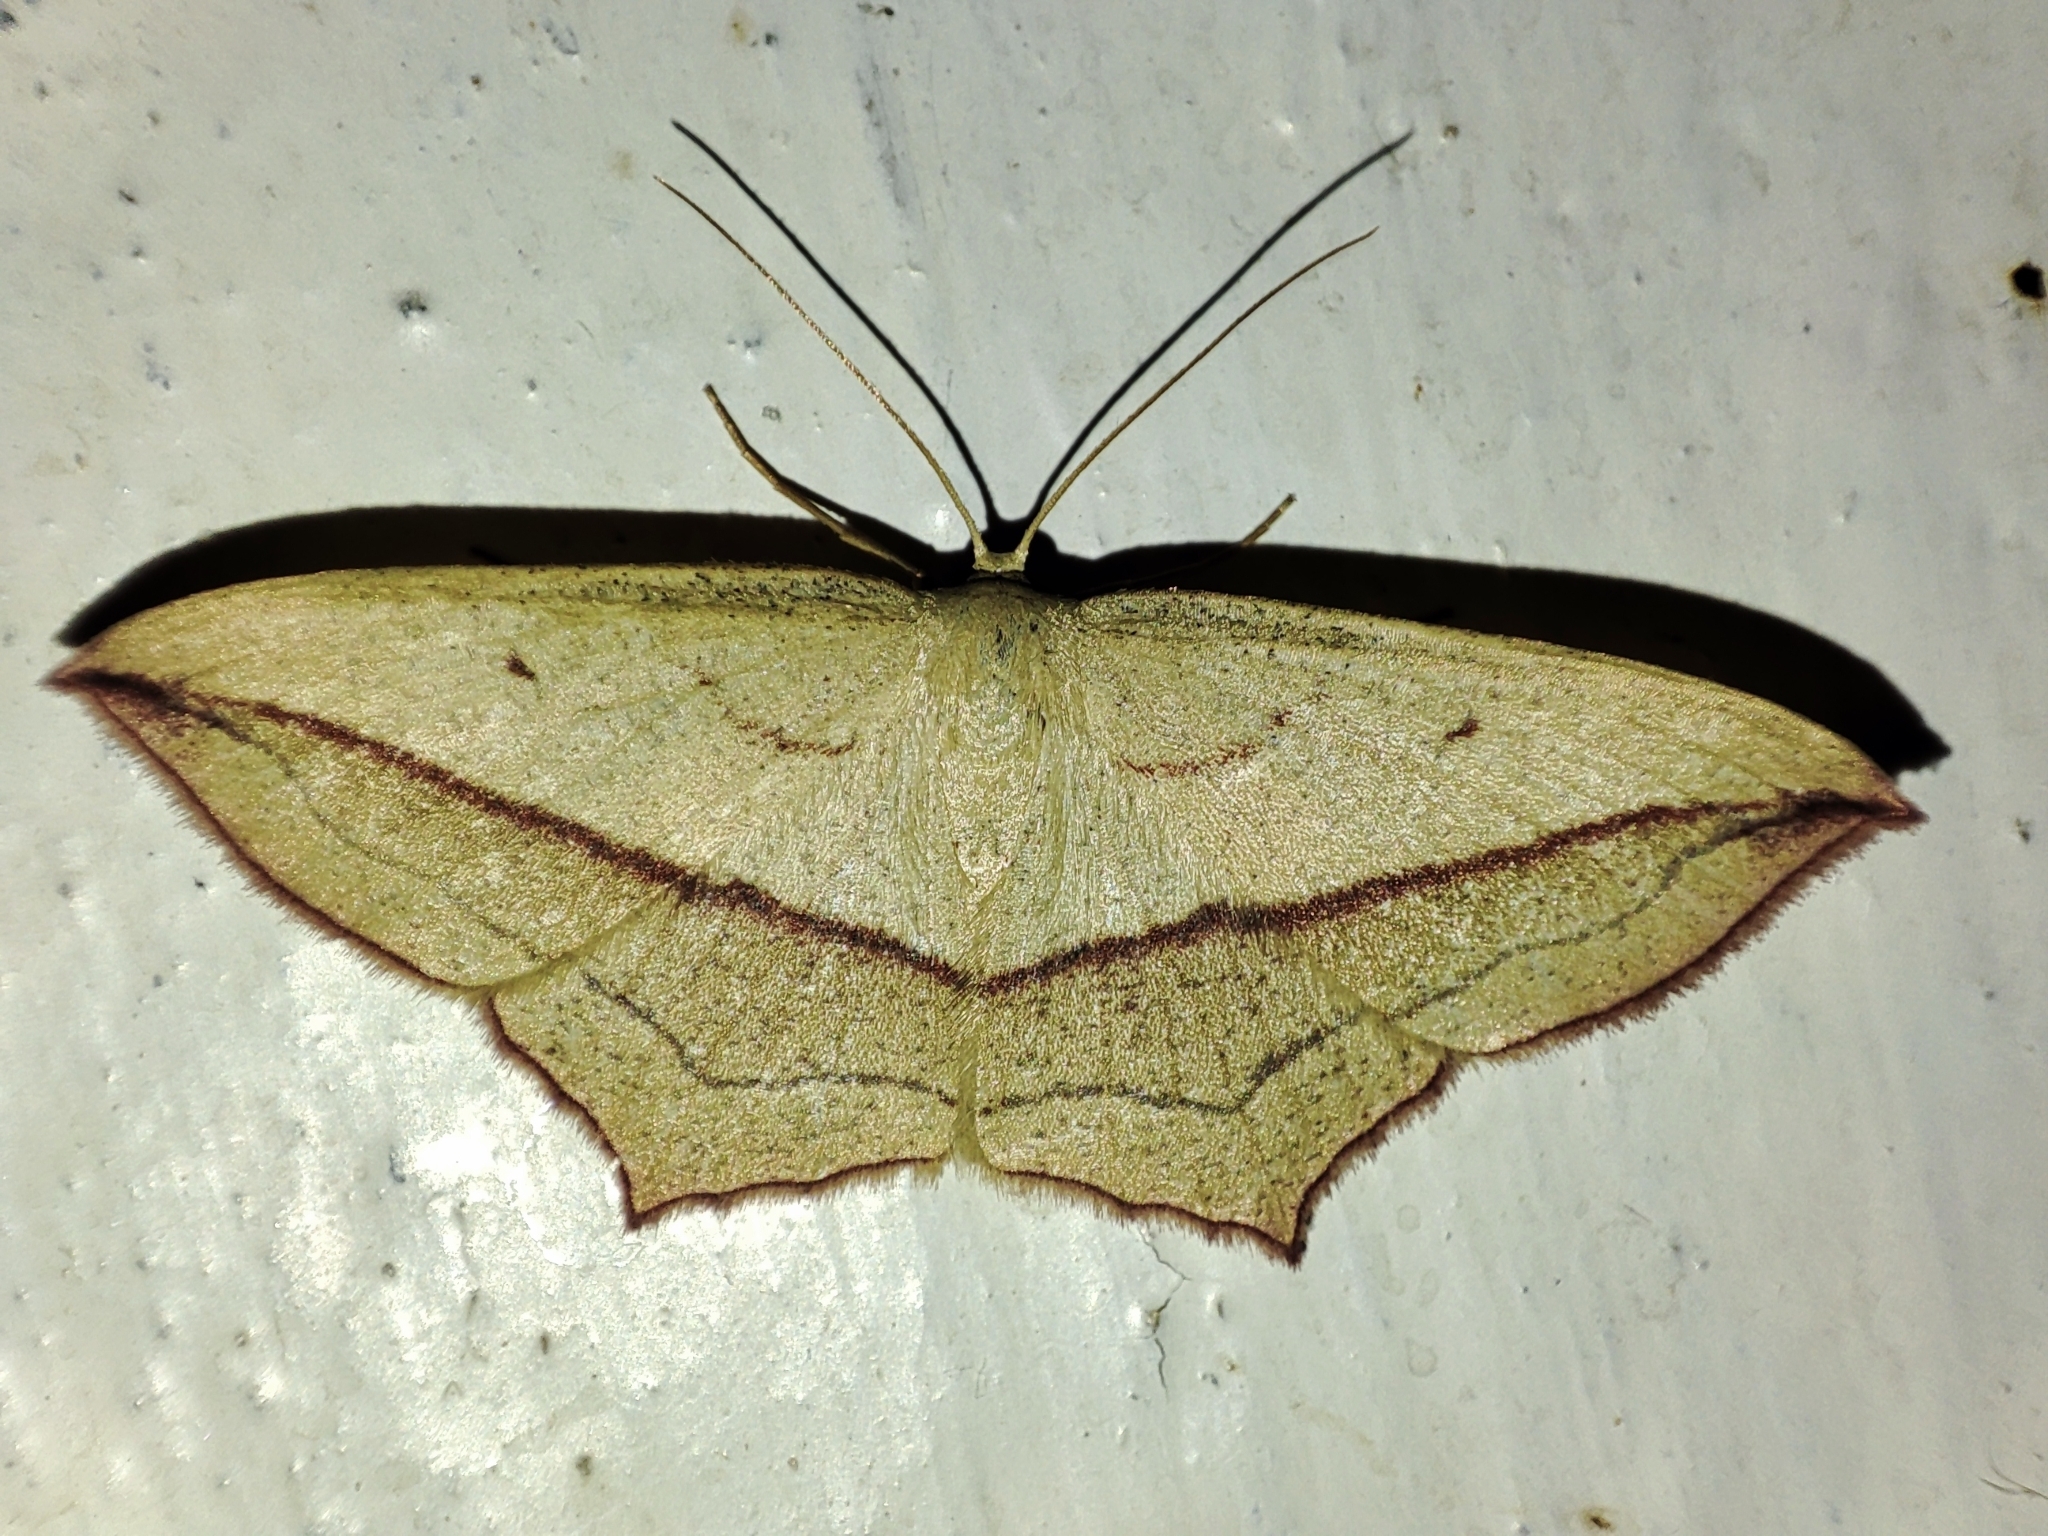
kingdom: Animalia
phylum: Arthropoda
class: Insecta
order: Lepidoptera
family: Geometridae
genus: Timandra
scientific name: Timandra comae
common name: Blood-vein
